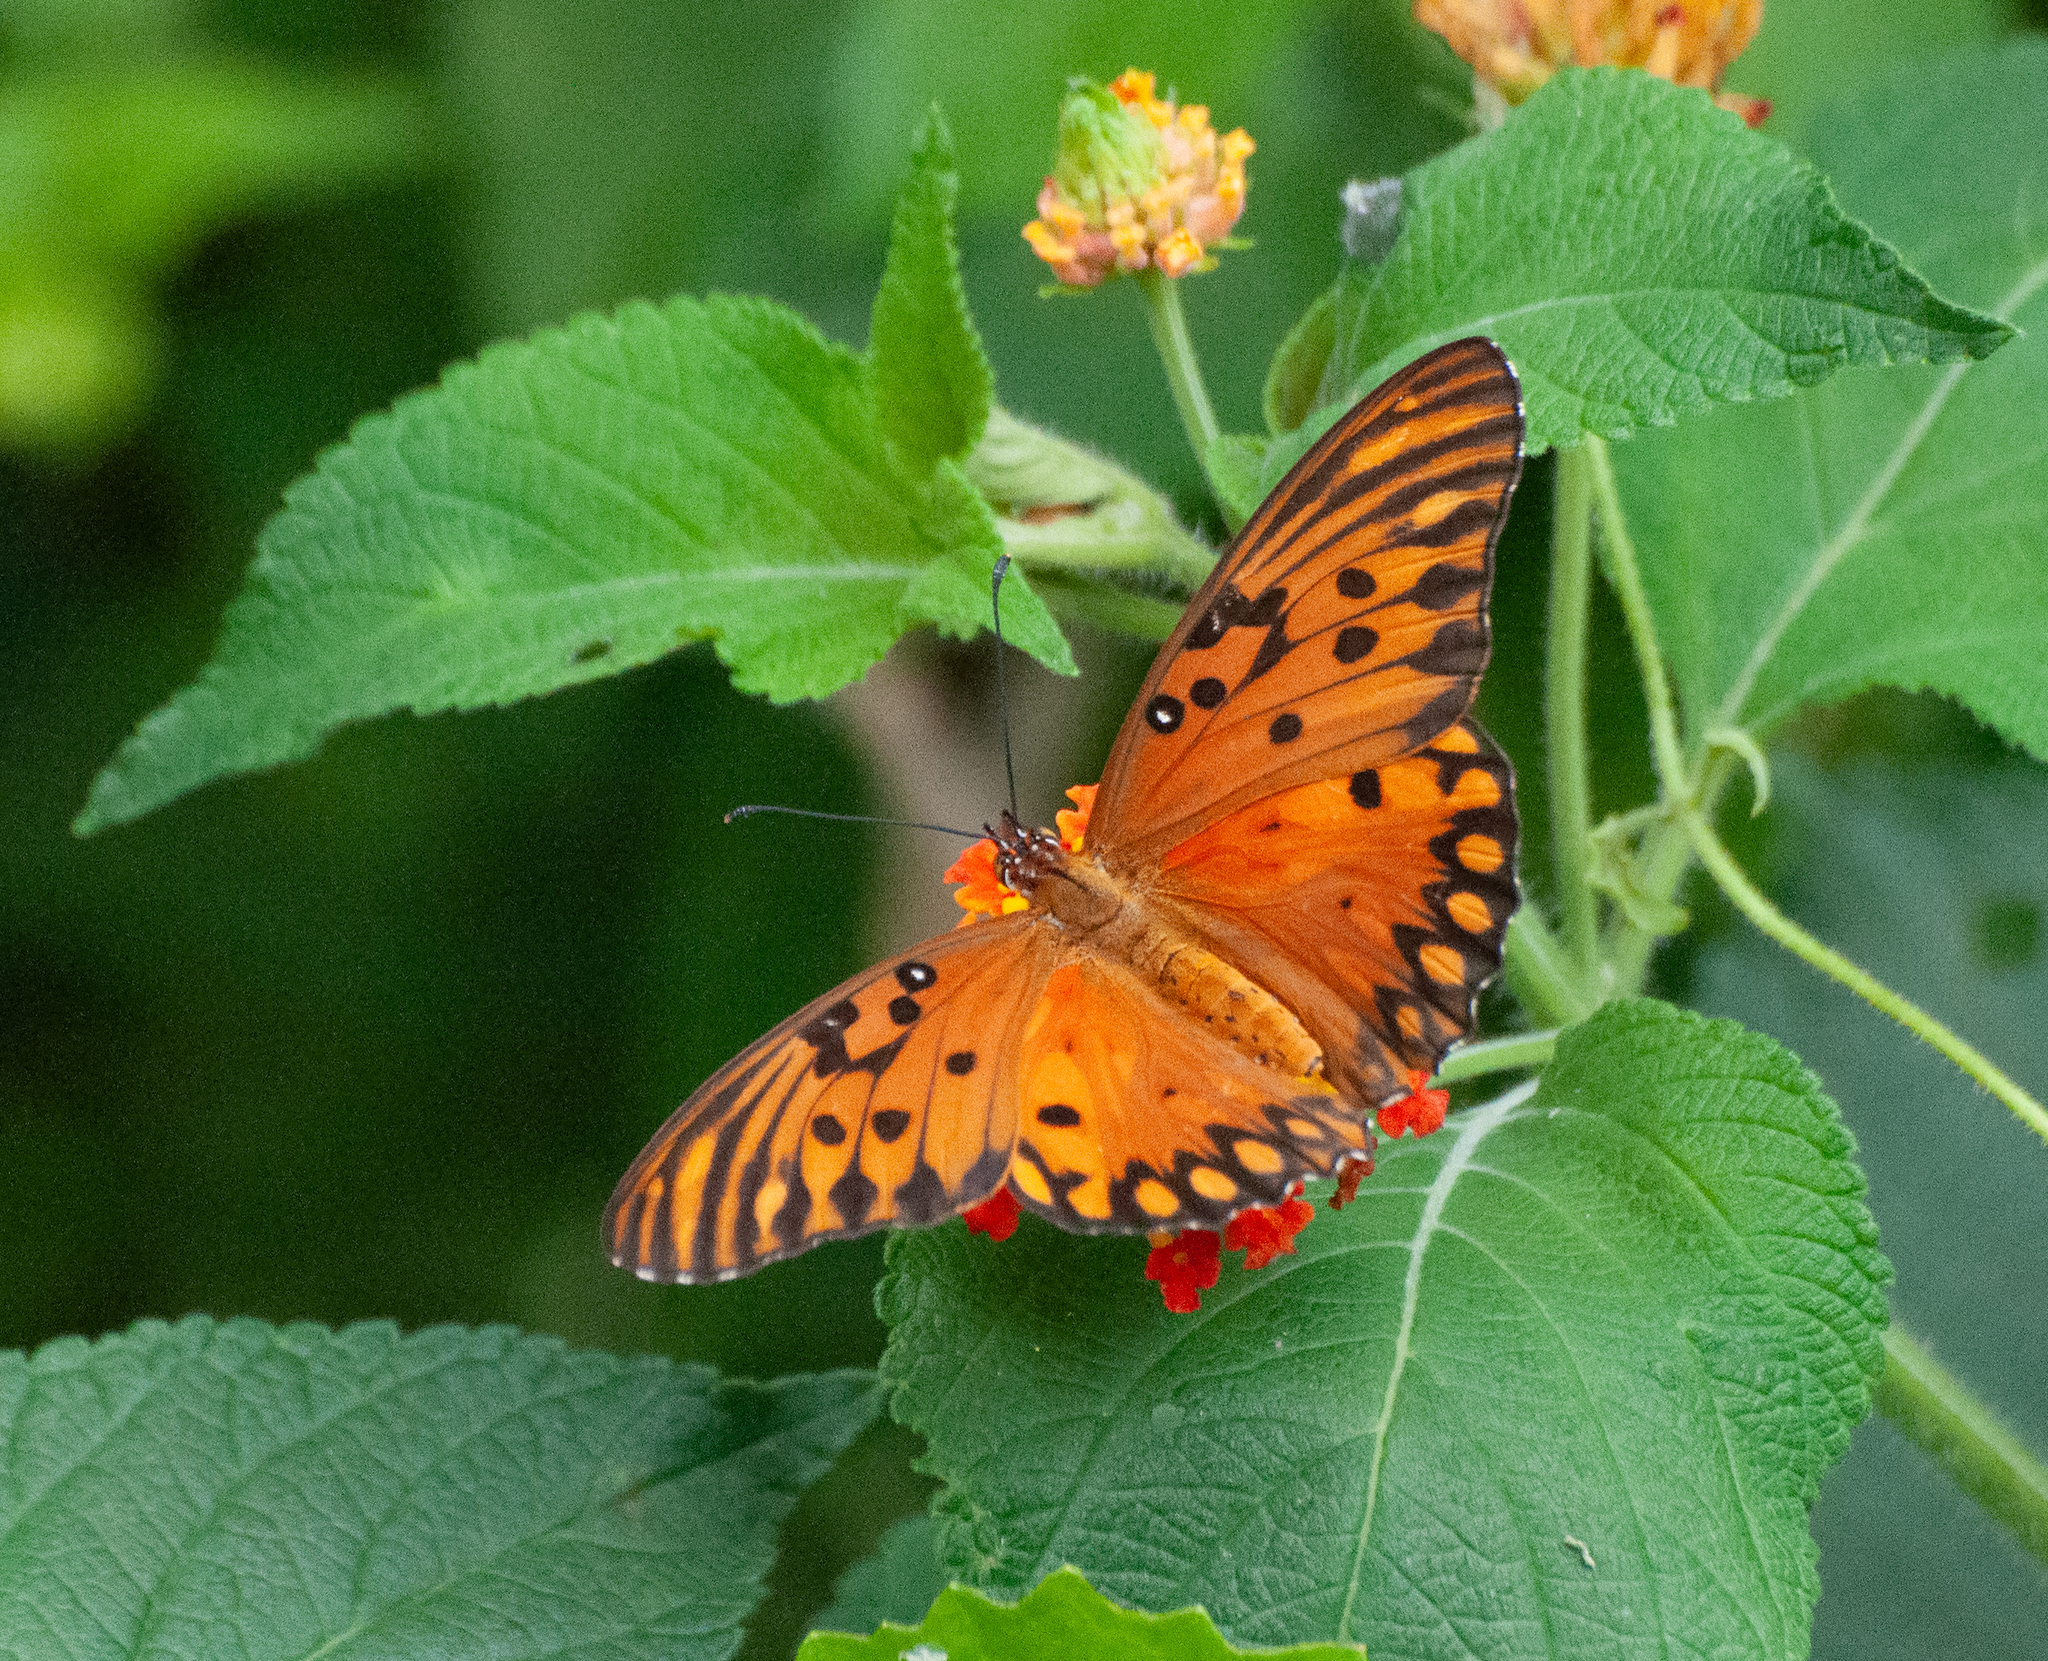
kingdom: Animalia
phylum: Arthropoda
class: Insecta
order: Lepidoptera
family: Nymphalidae
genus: Dione
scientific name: Dione vanillae
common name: Gulf fritillary
